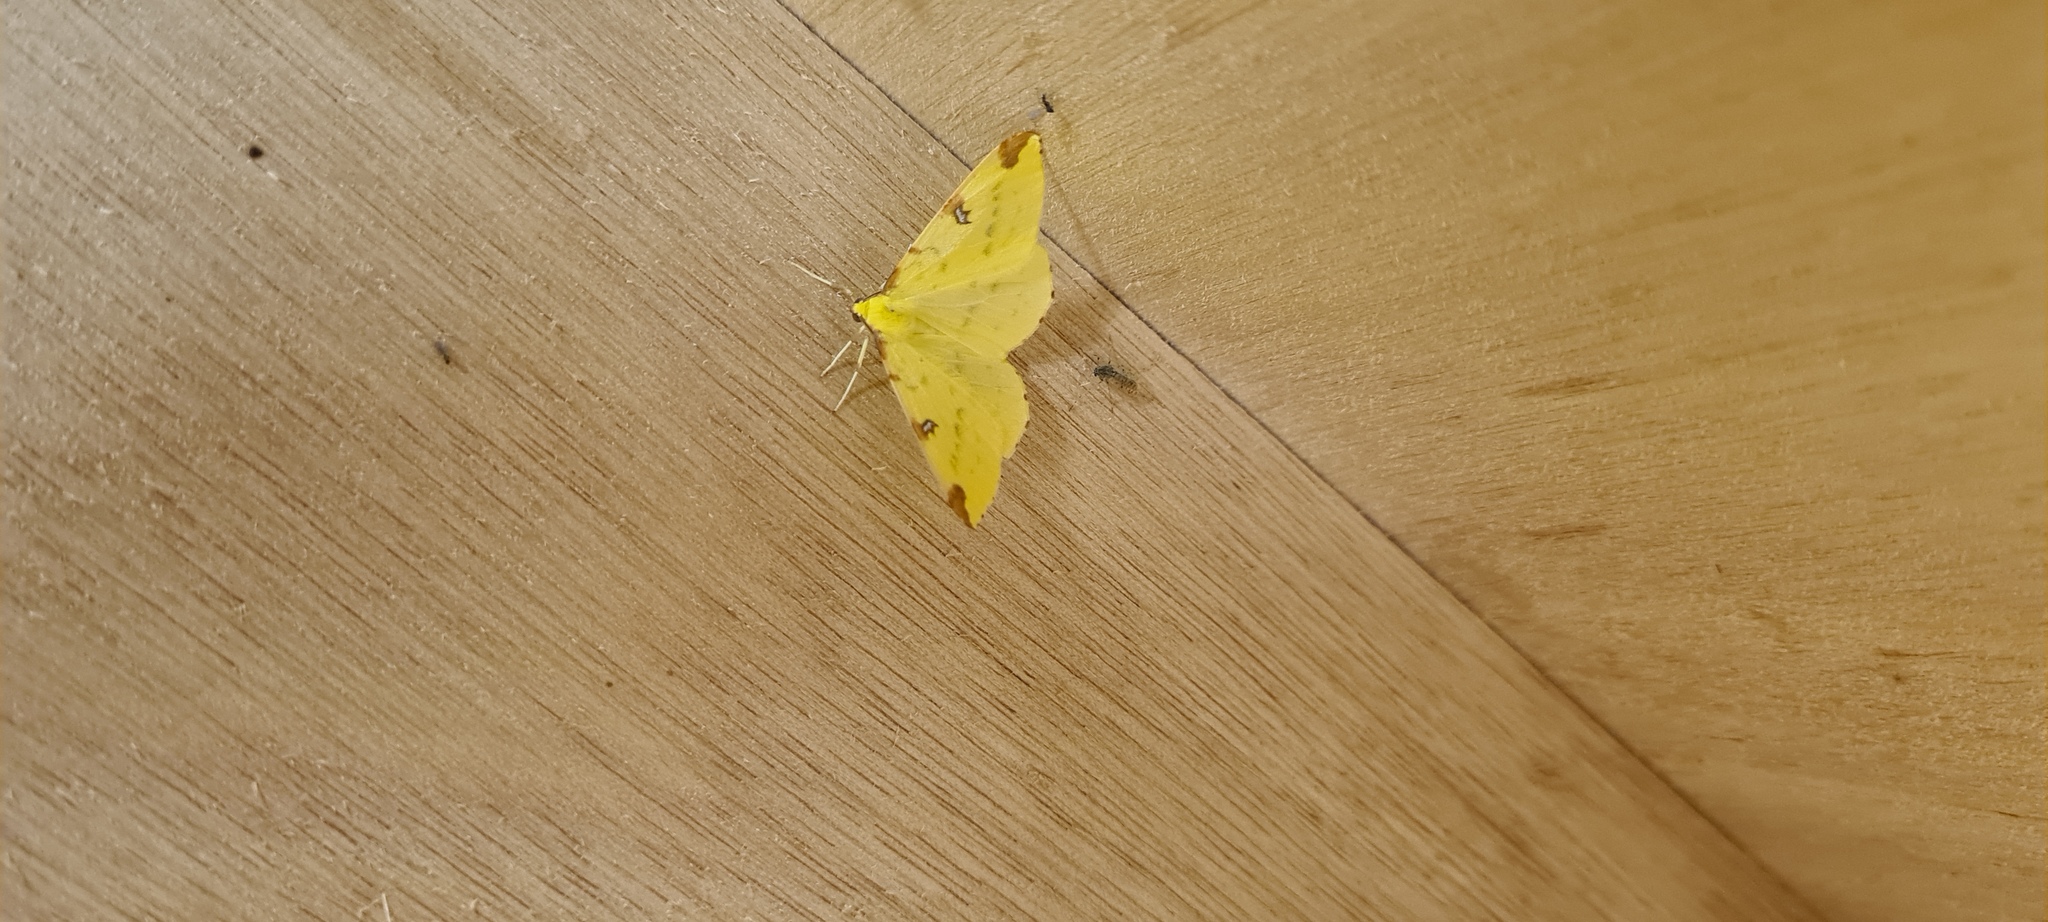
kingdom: Animalia
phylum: Arthropoda
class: Insecta
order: Lepidoptera
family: Geometridae
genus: Opisthograptis
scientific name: Opisthograptis luteolata
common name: Brimstone moth
